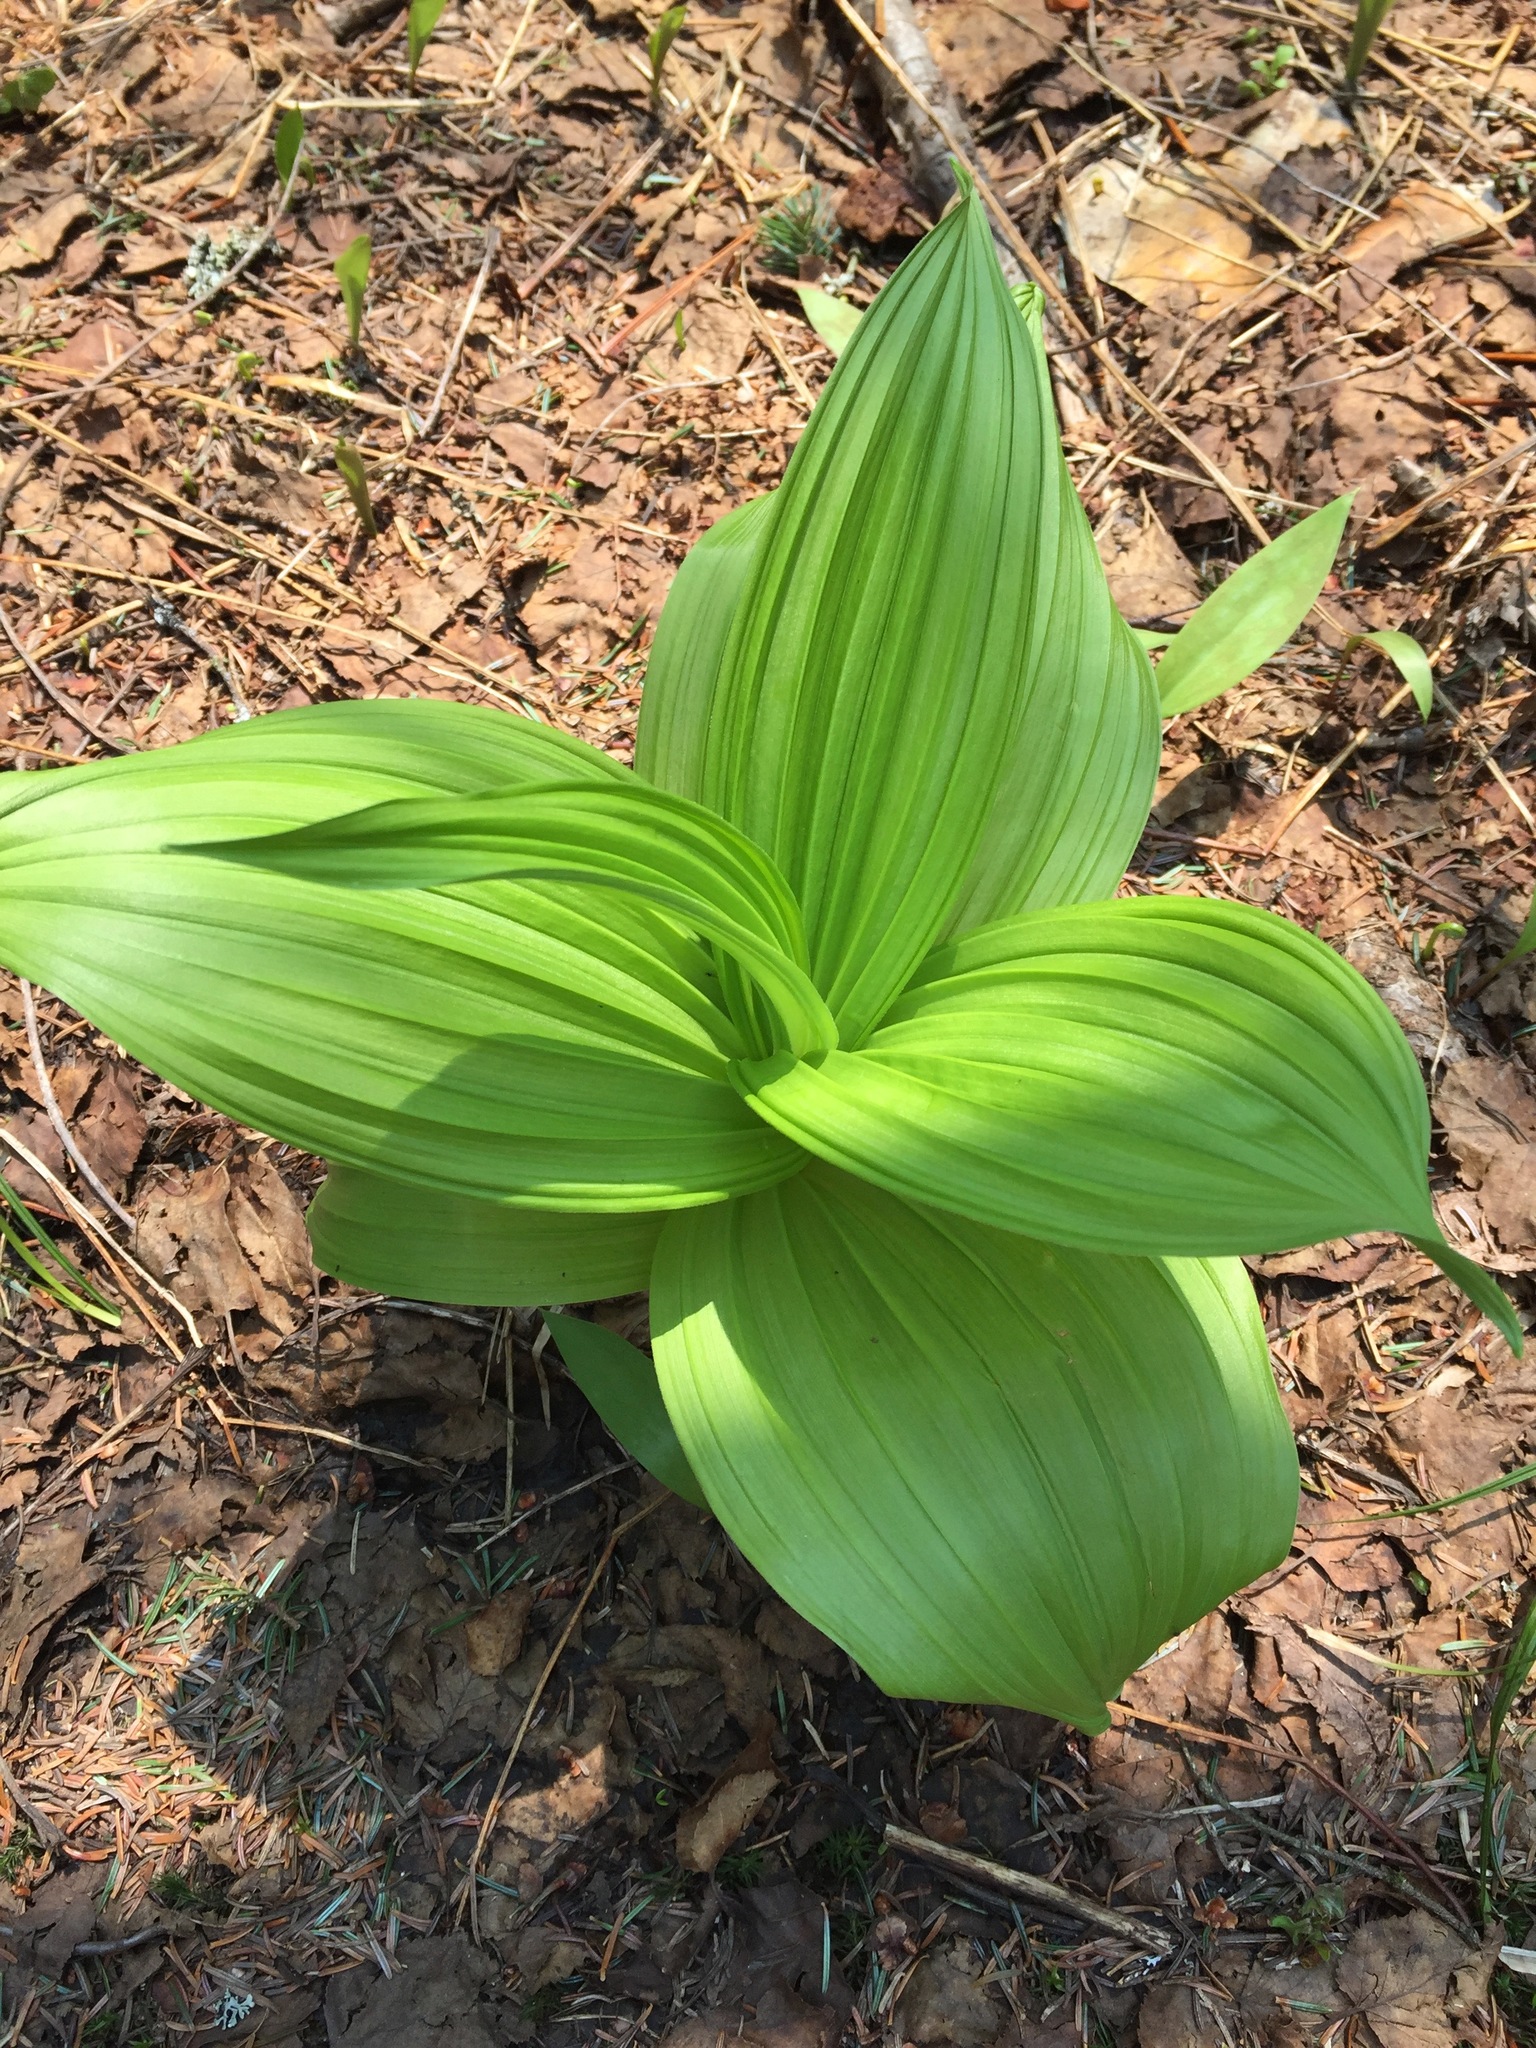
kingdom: Plantae
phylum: Tracheophyta
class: Liliopsida
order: Liliales
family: Melanthiaceae
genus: Veratrum
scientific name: Veratrum viride
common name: American false hellebore
